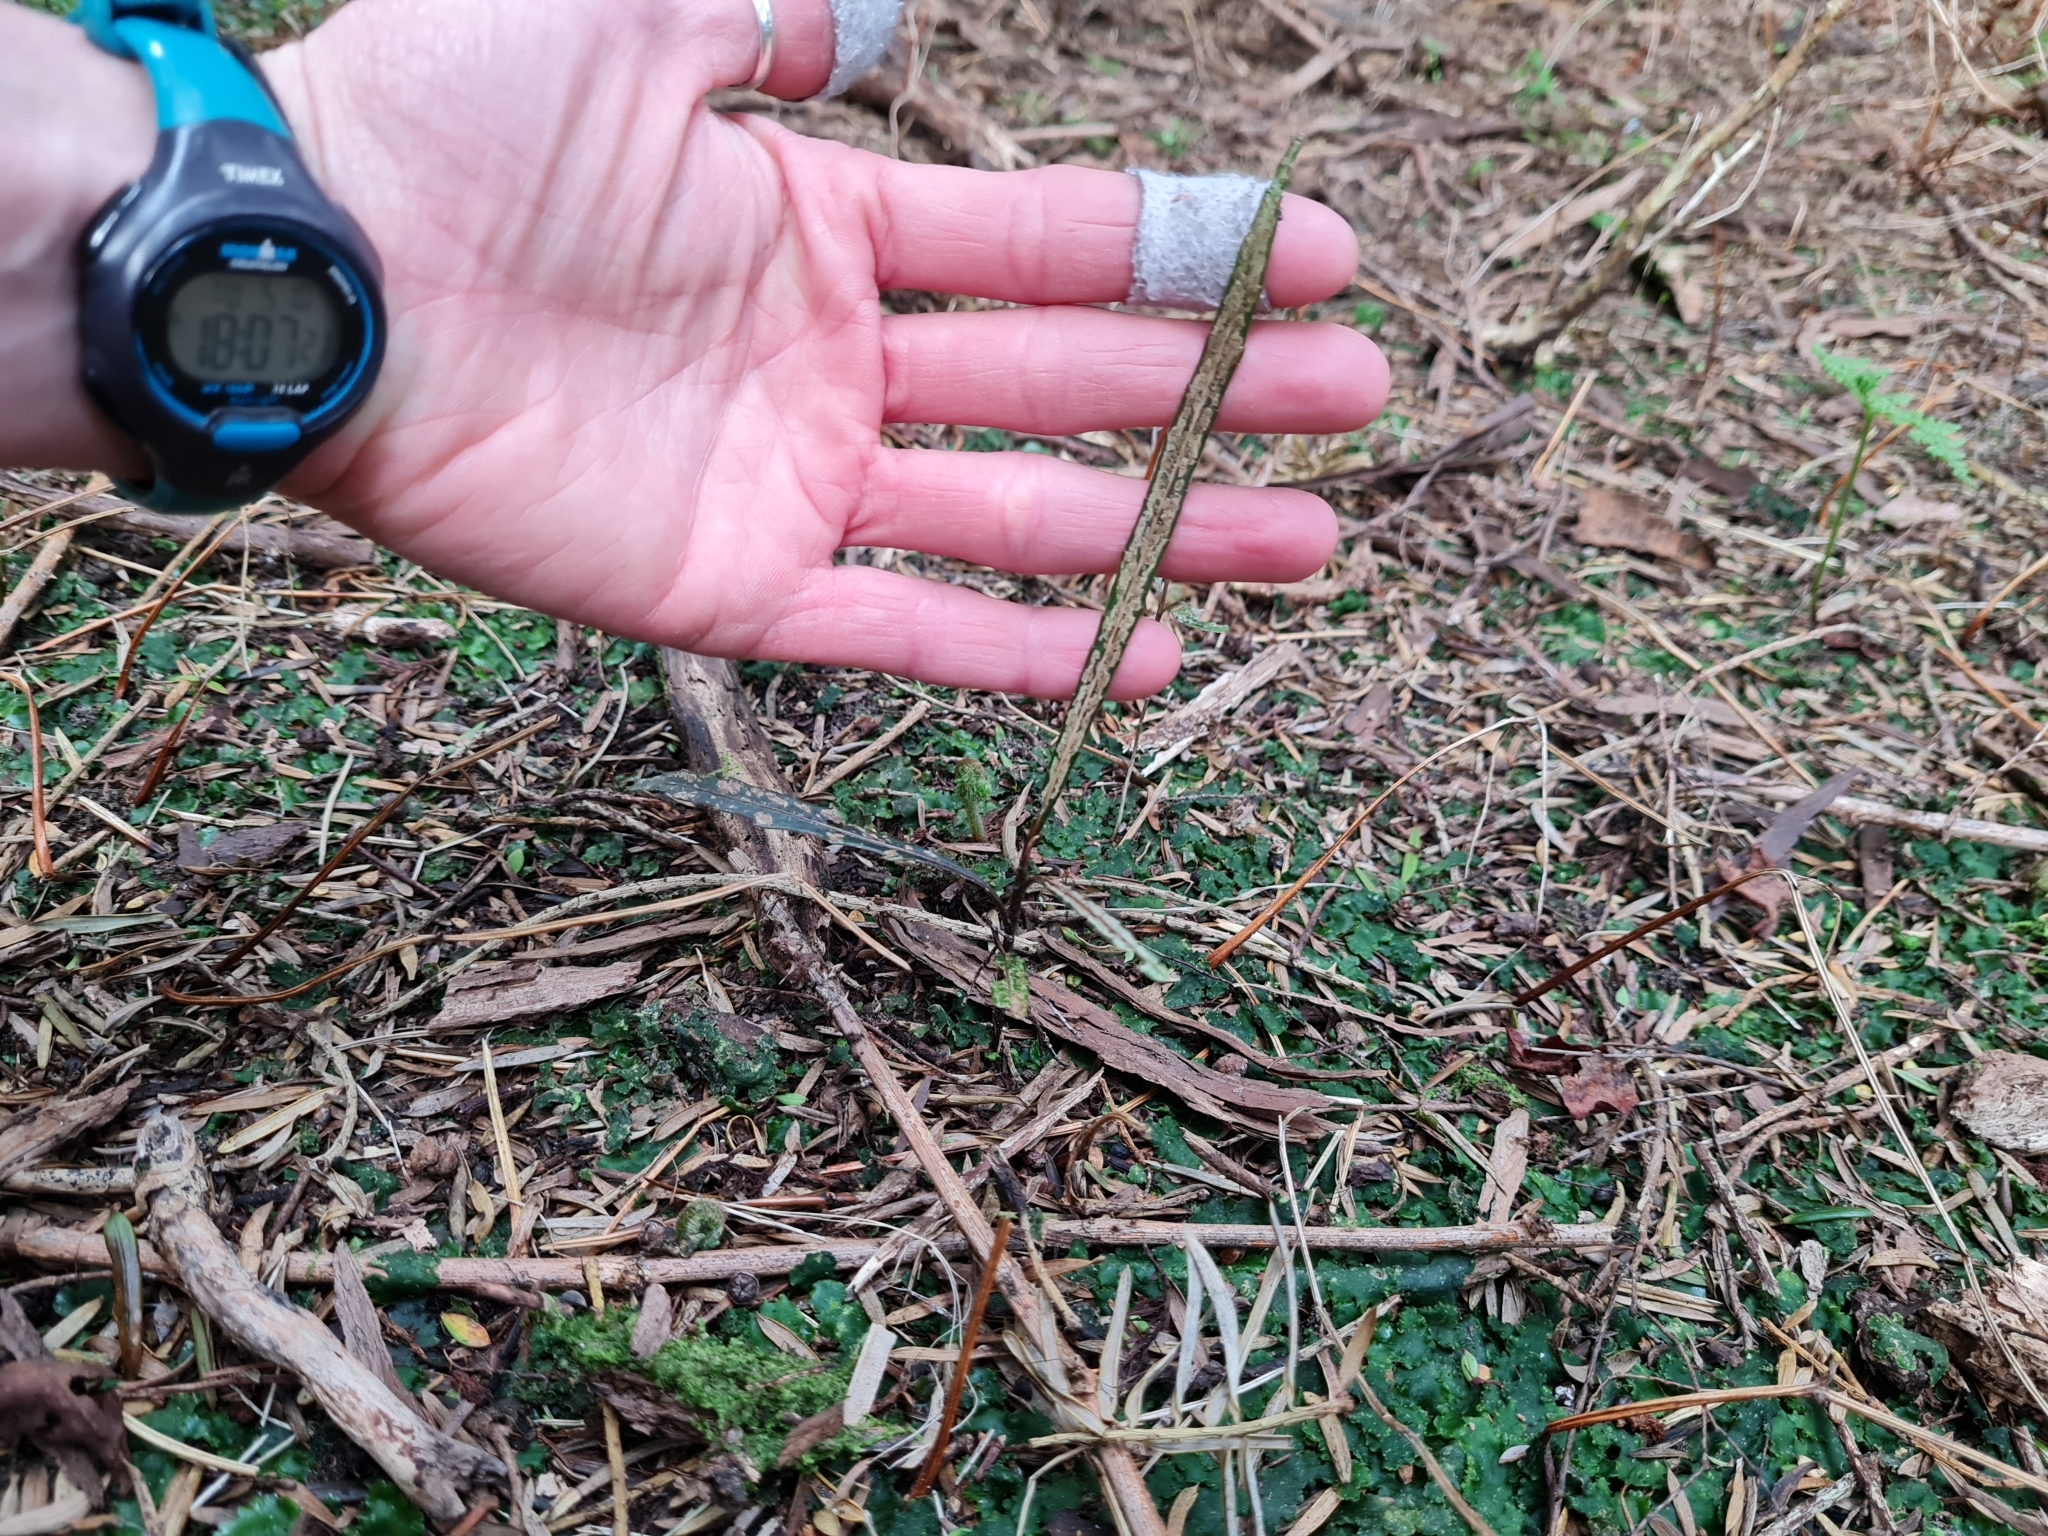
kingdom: Plantae
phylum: Tracheophyta
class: Magnoliopsida
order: Apiales
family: Araliaceae
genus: Pseudopanax
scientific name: Pseudopanax crassifolius
